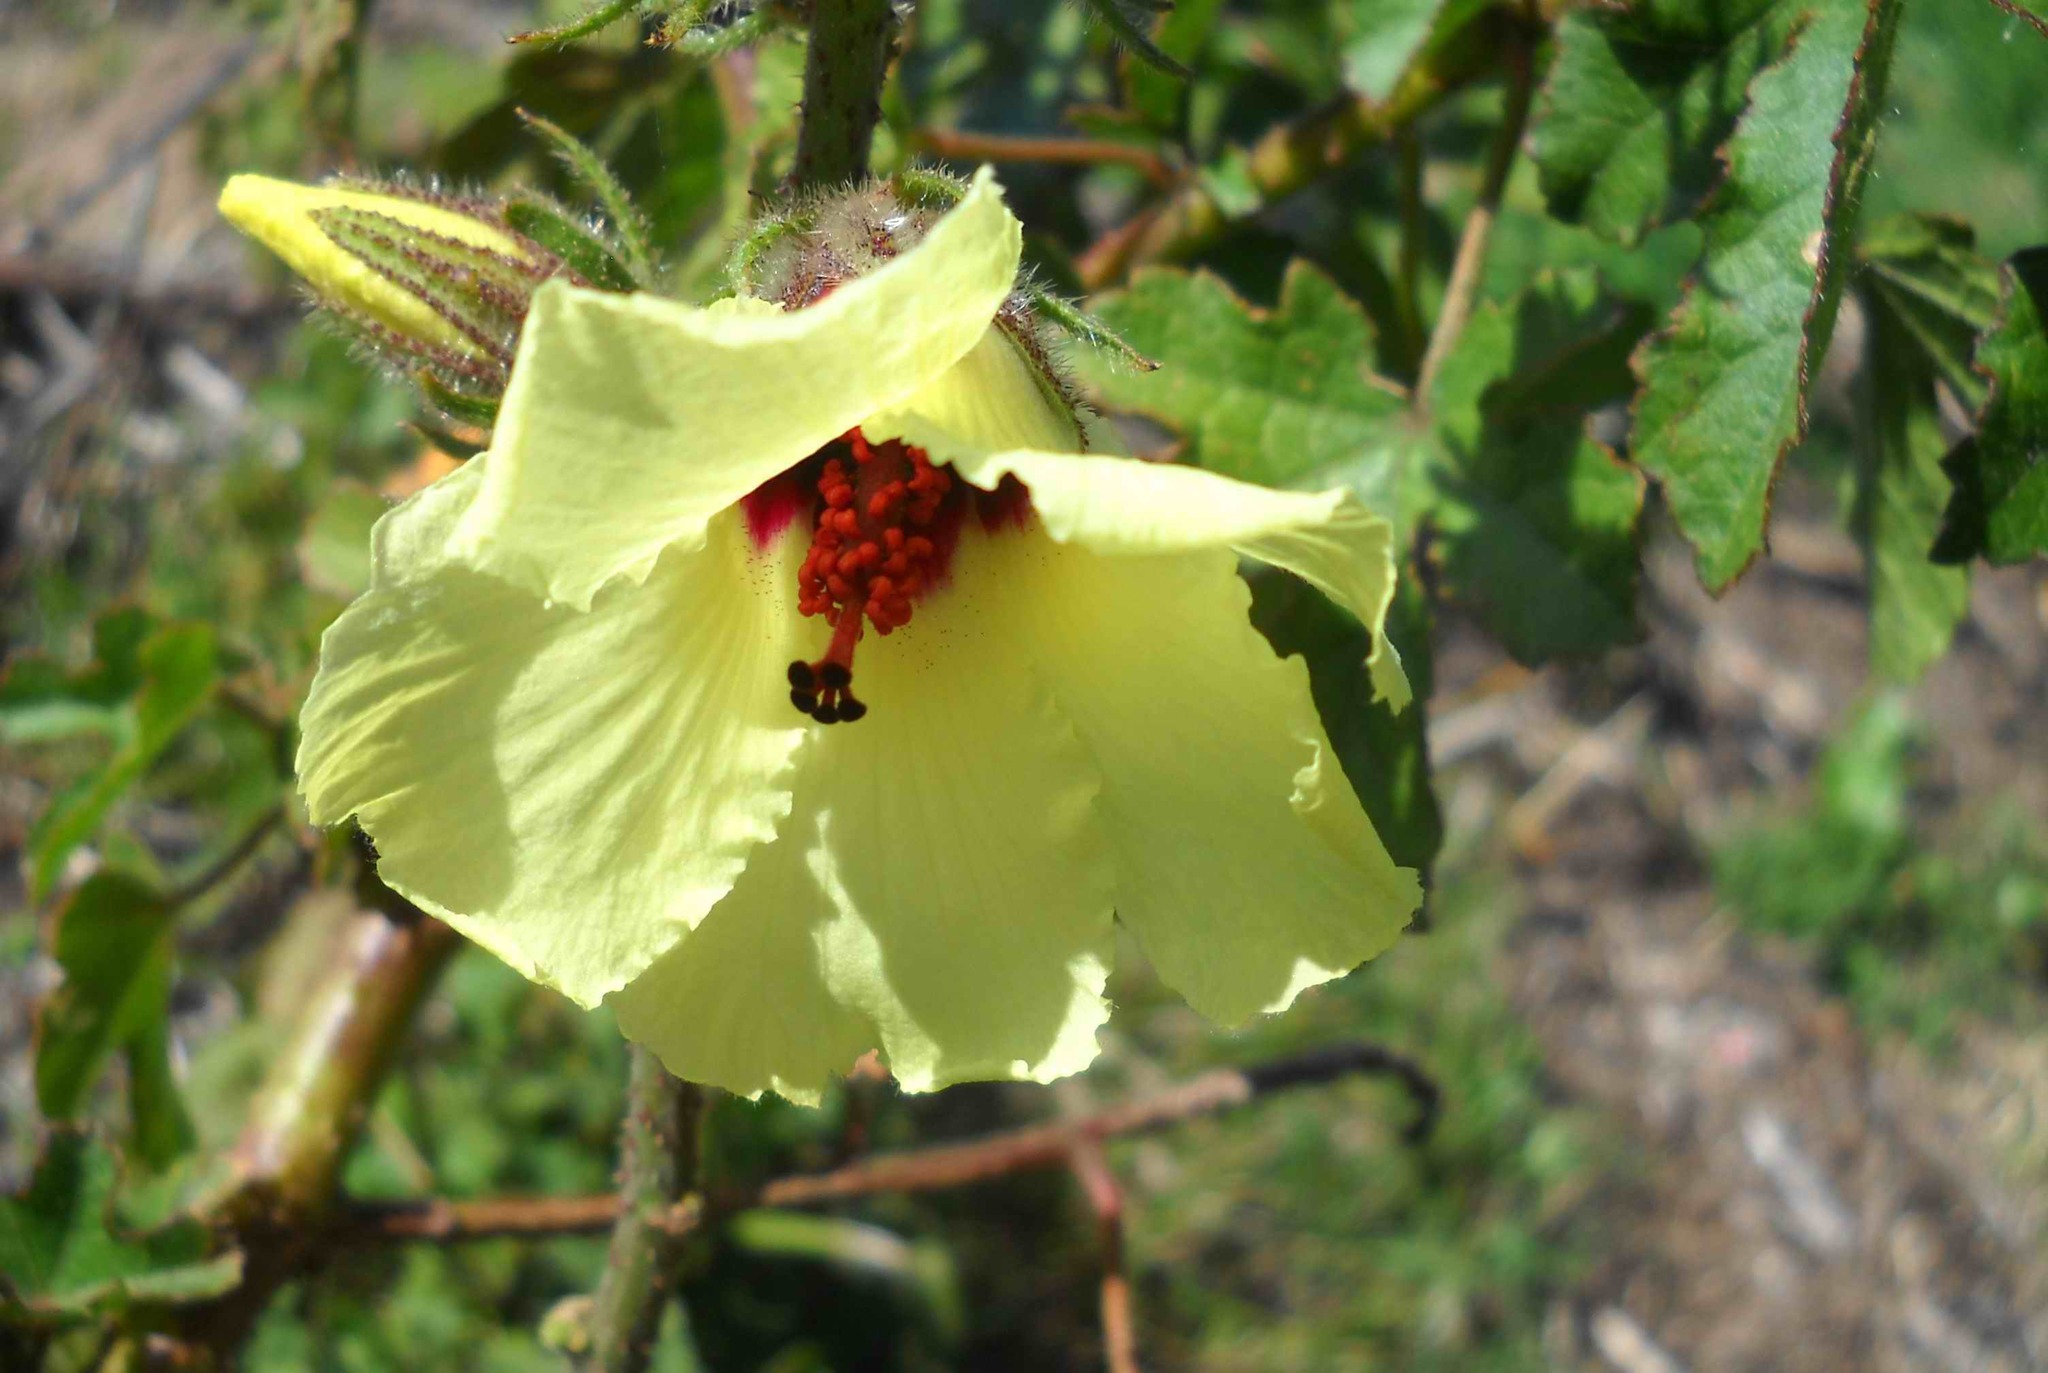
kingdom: Plantae
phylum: Tracheophyta
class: Magnoliopsida
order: Malvales
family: Malvaceae
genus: Hibiscus
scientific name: Hibiscus diversifolius
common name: Cape hibiscus
